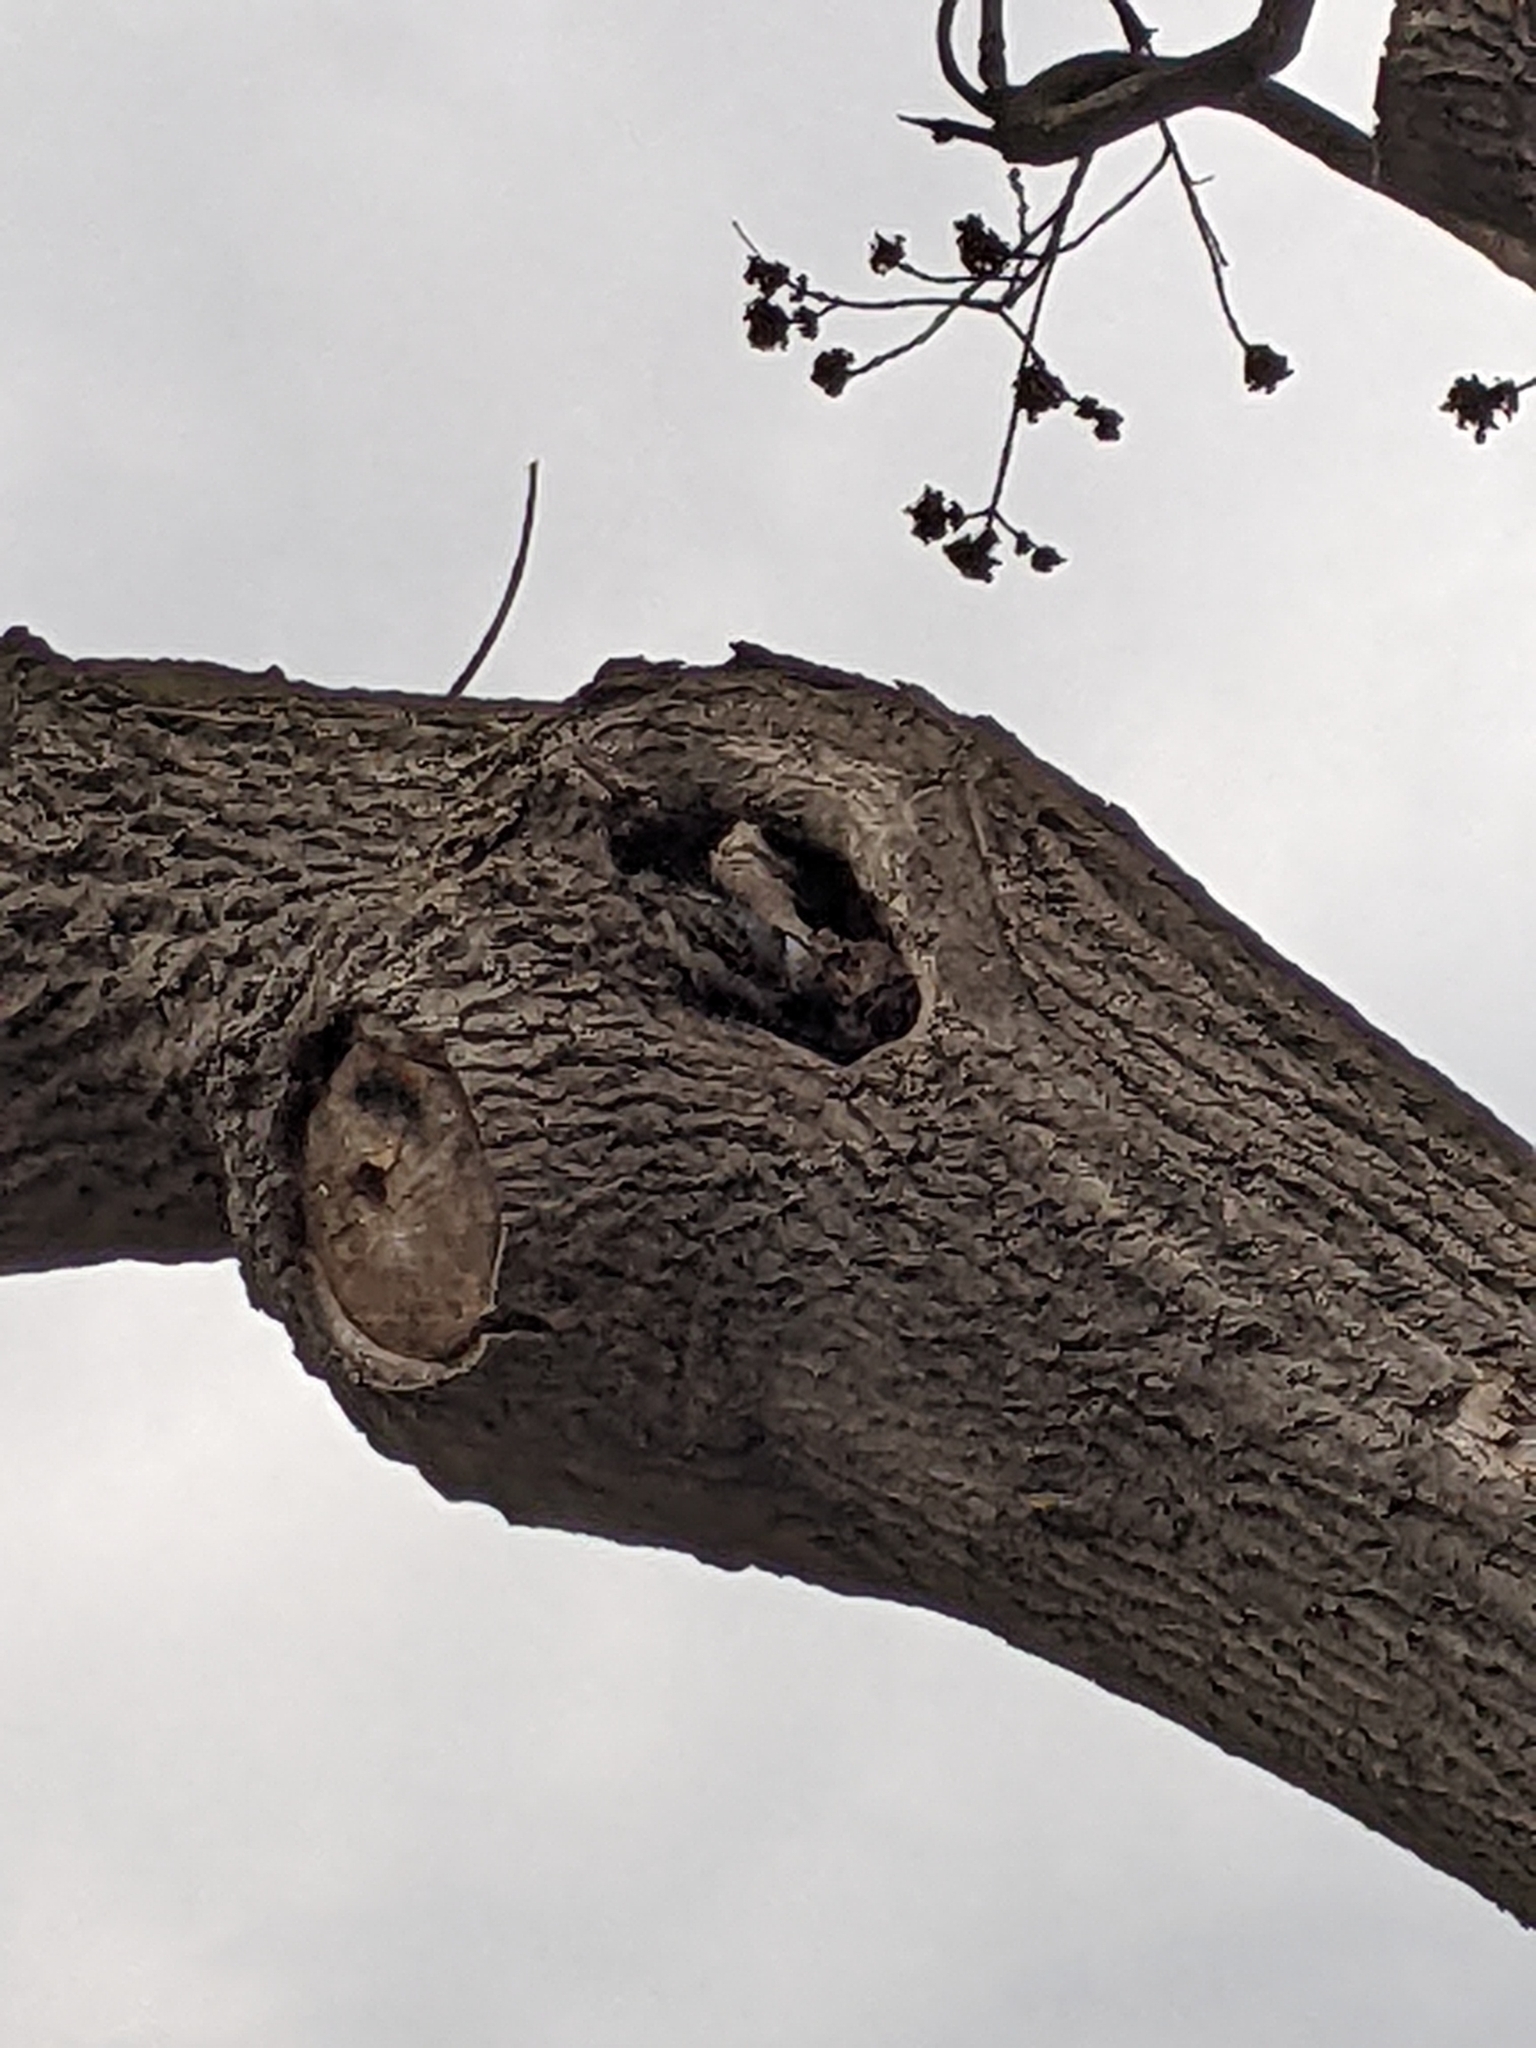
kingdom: Animalia
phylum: Chordata
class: Aves
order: Passeriformes
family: Sittidae
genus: Sitta
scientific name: Sitta carolinensis
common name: White-breasted nuthatch
